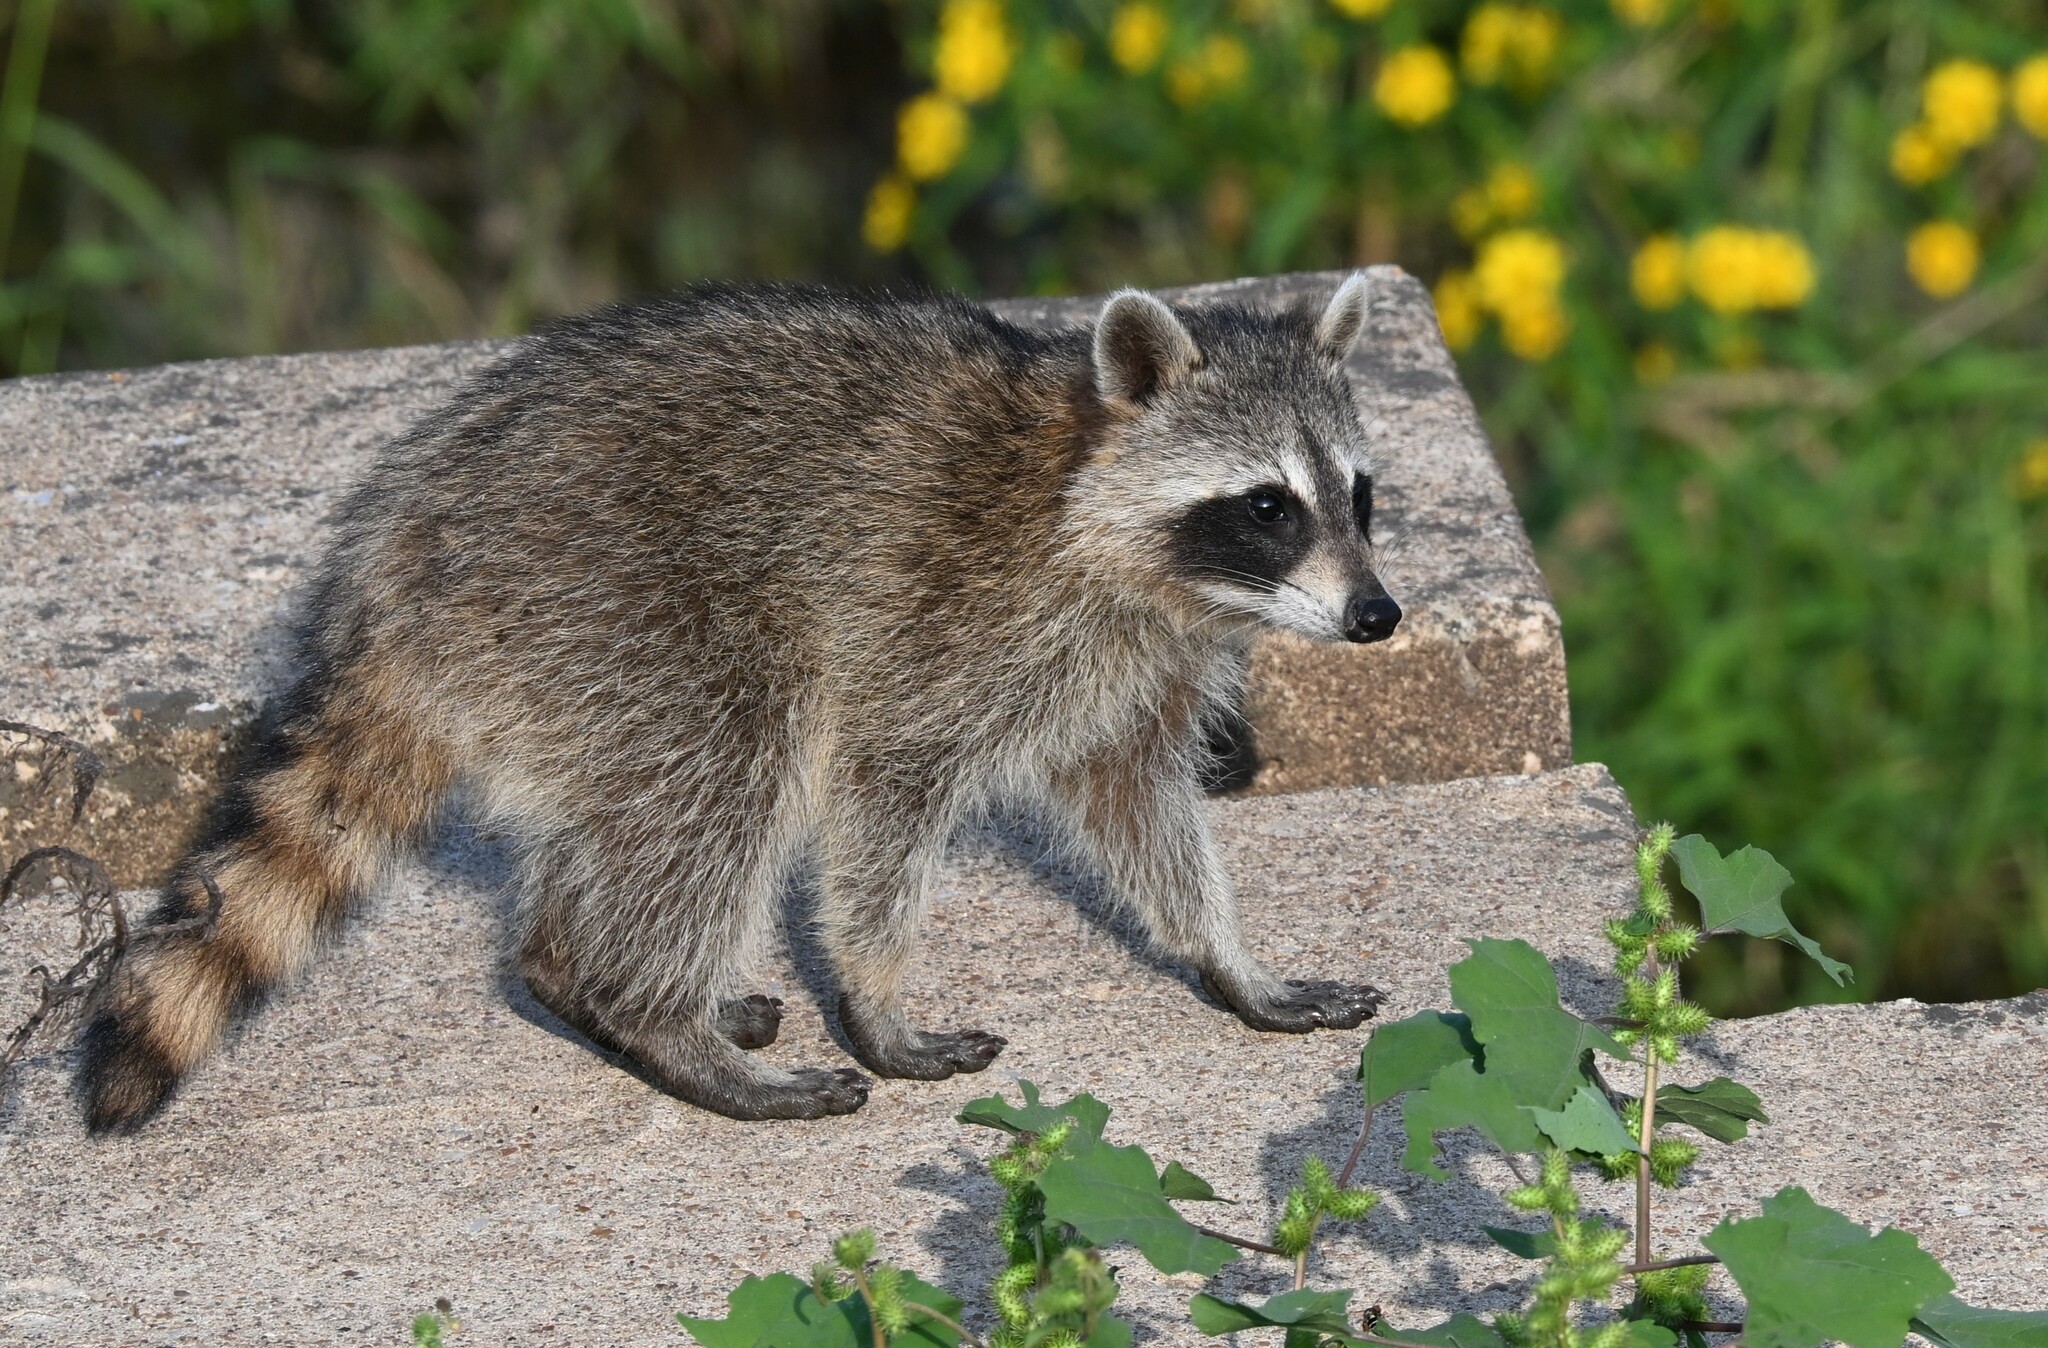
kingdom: Animalia
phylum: Chordata
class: Mammalia
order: Carnivora
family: Procyonidae
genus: Procyon
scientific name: Procyon lotor
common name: Raccoon
